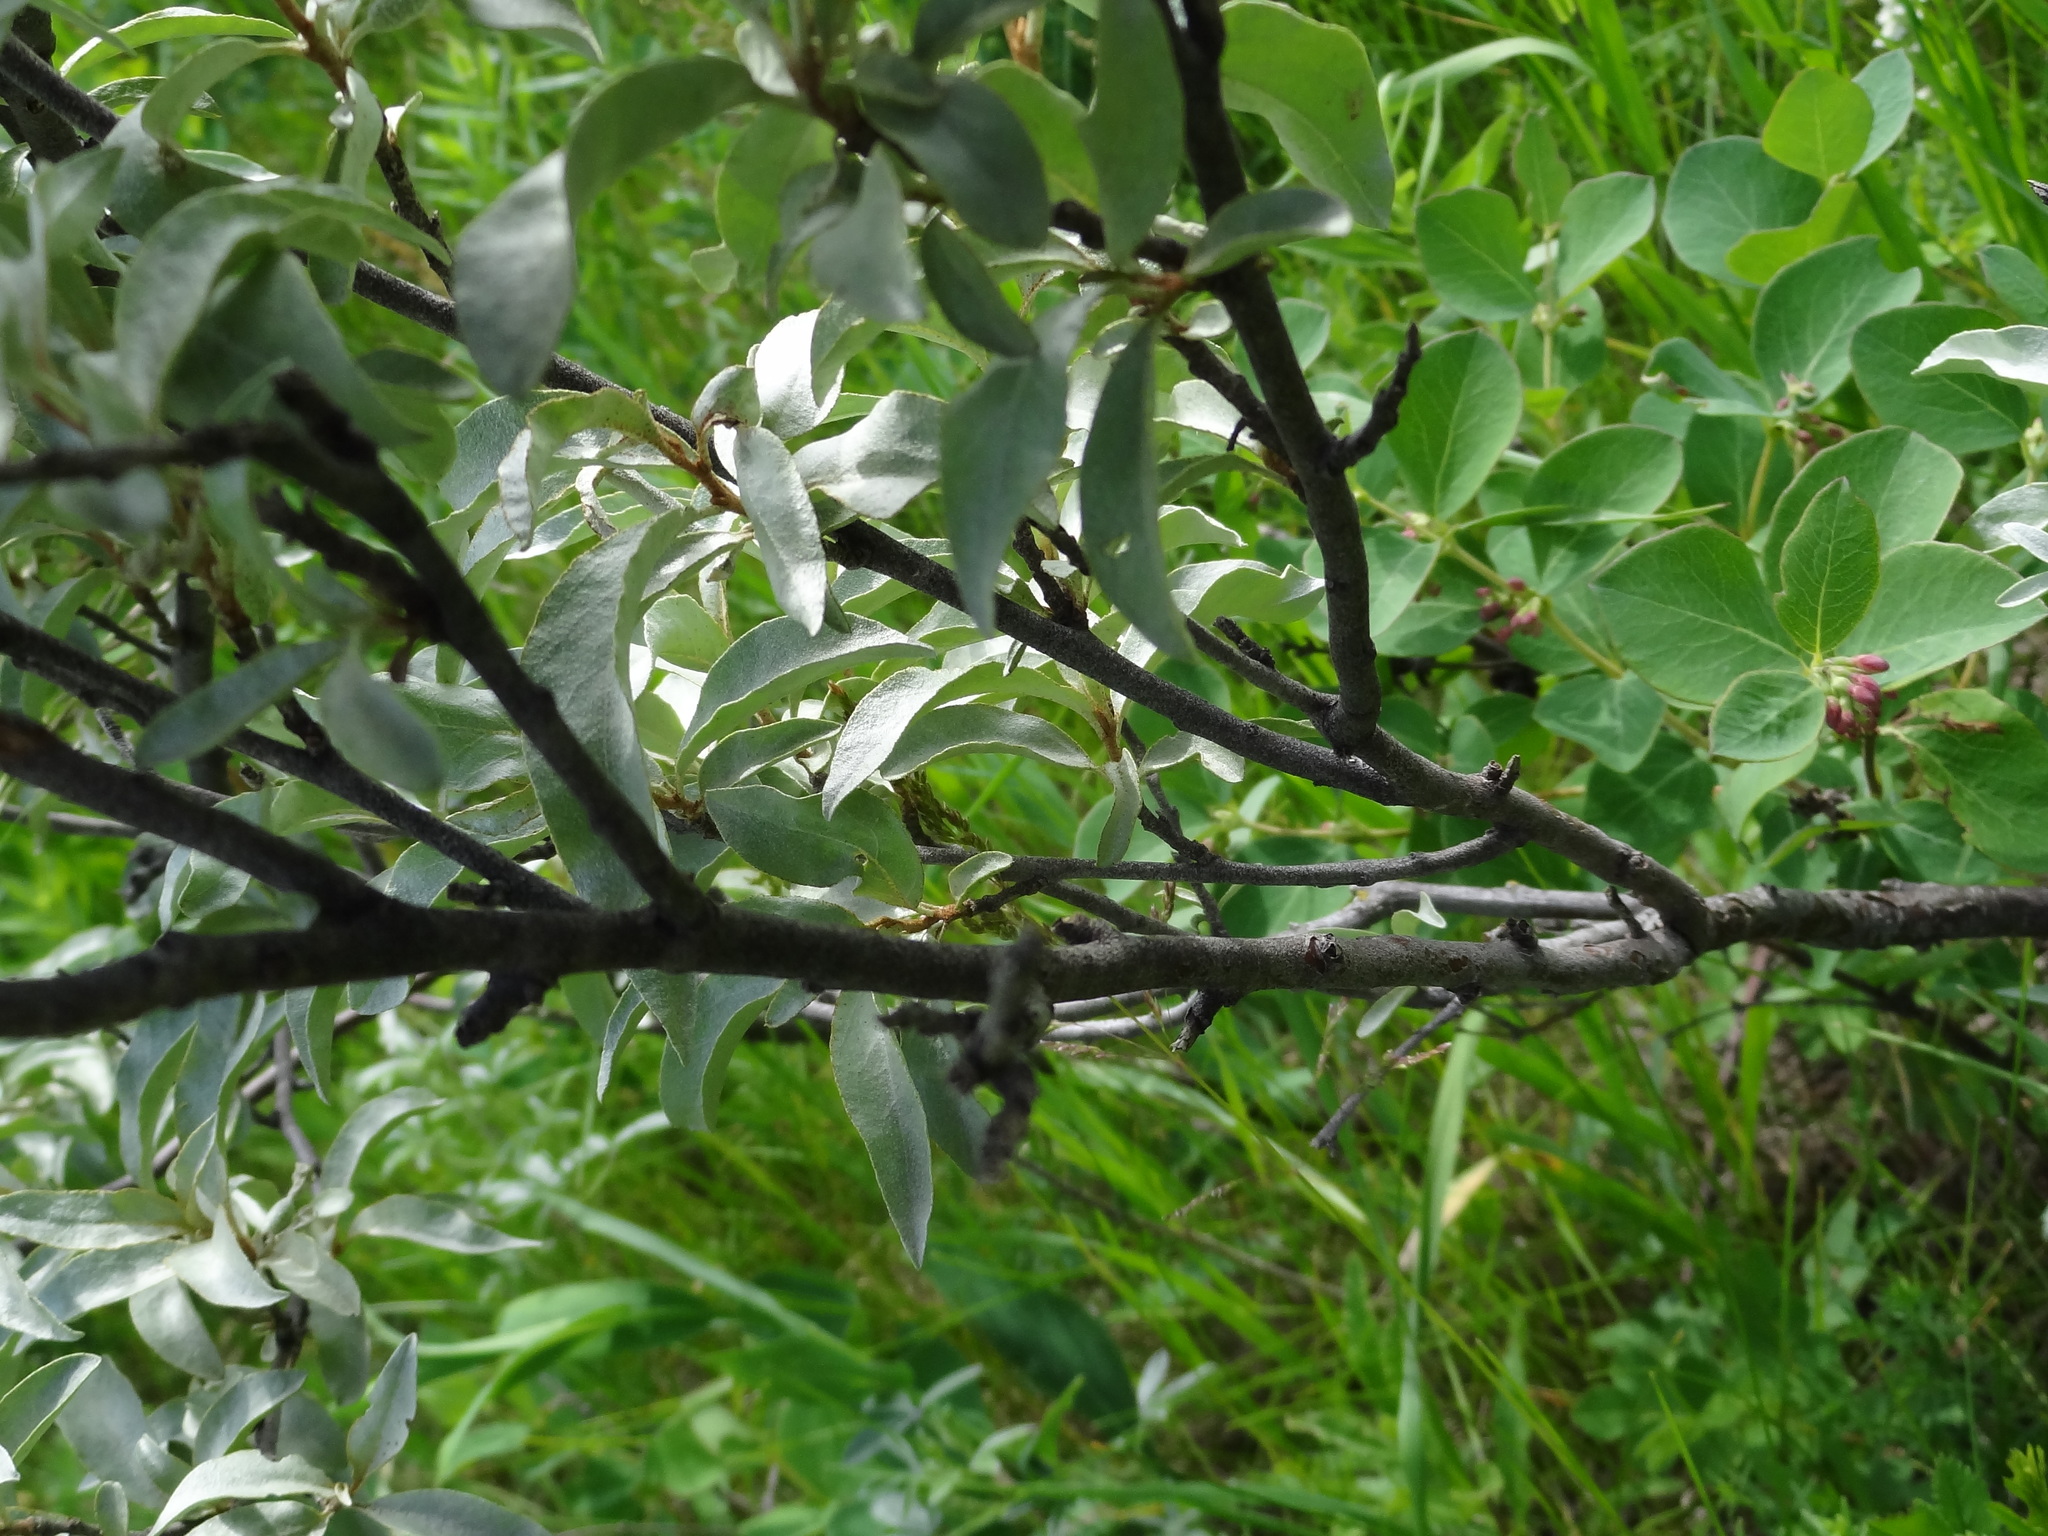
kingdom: Plantae
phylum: Tracheophyta
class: Magnoliopsida
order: Rosales
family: Elaeagnaceae
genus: Elaeagnus
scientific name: Elaeagnus commutata
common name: Silverberry
